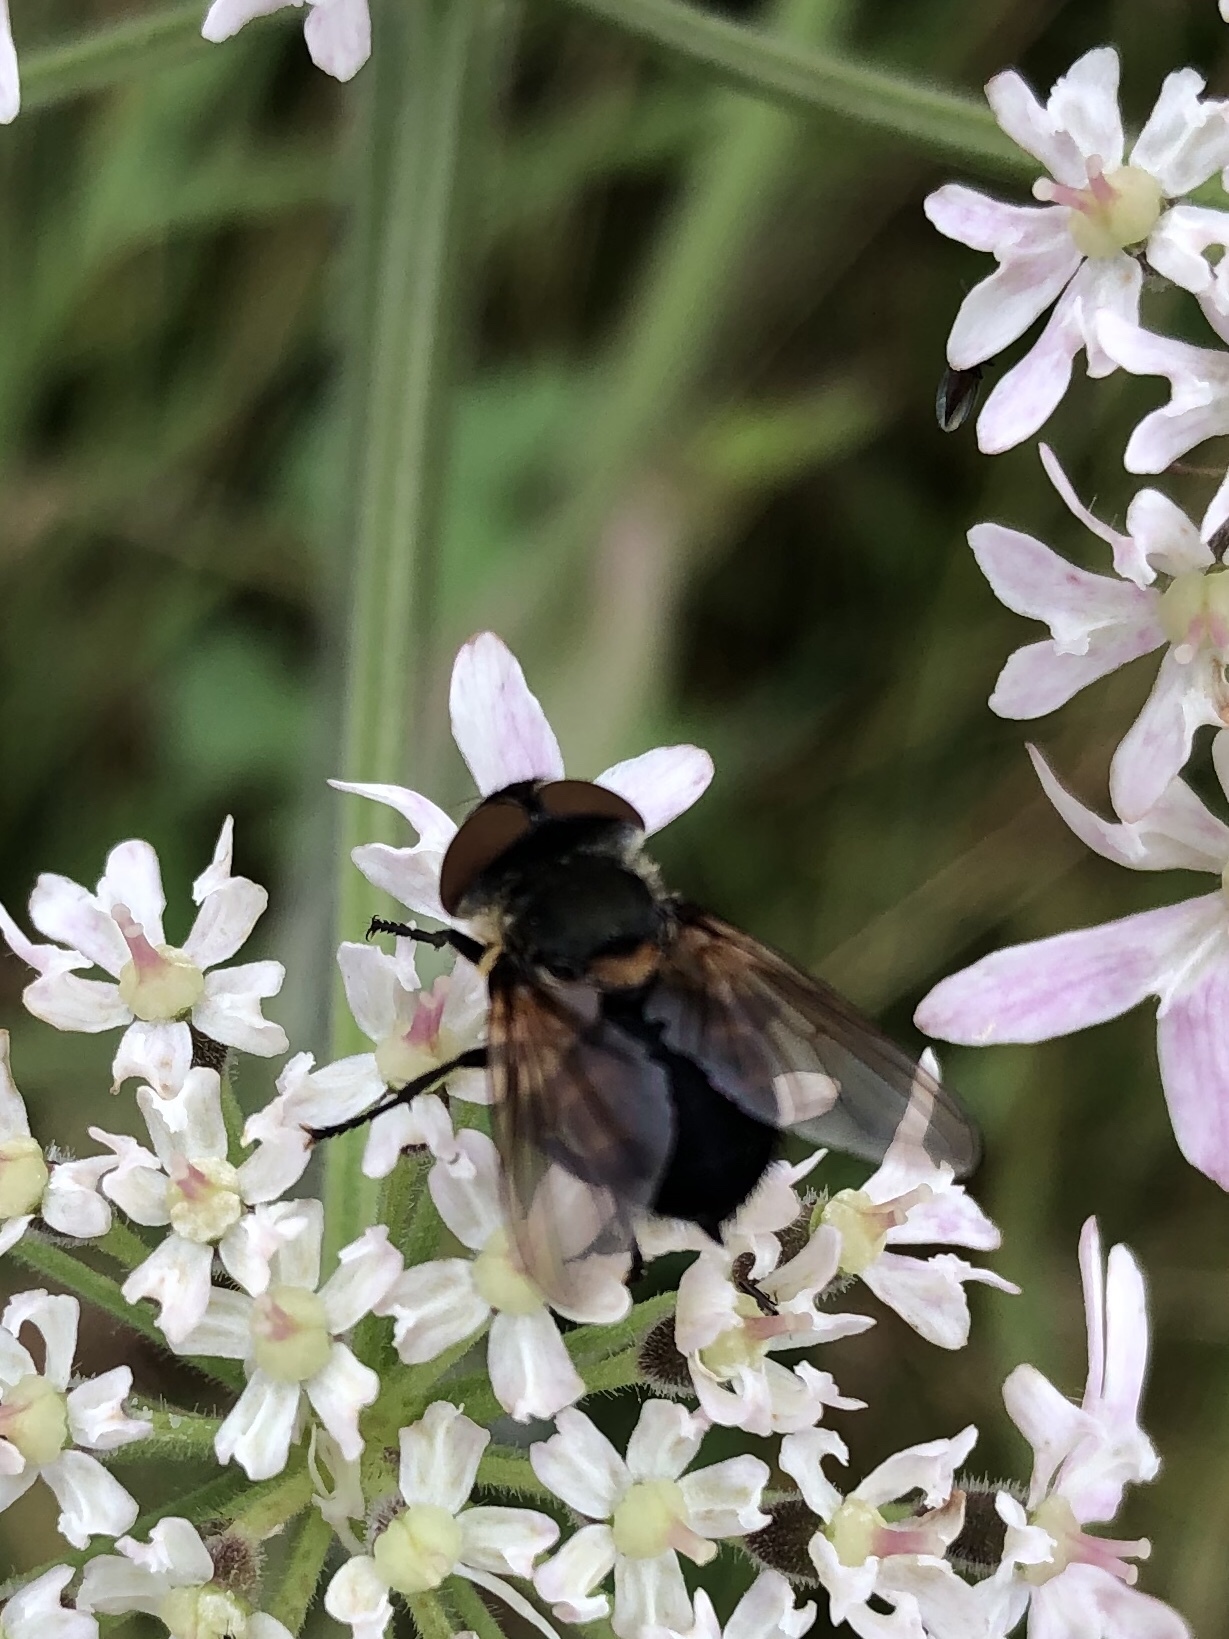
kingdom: Animalia
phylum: Arthropoda
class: Insecta
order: Diptera
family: Tachinidae
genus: Phasia
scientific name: Phasia hemiptera
